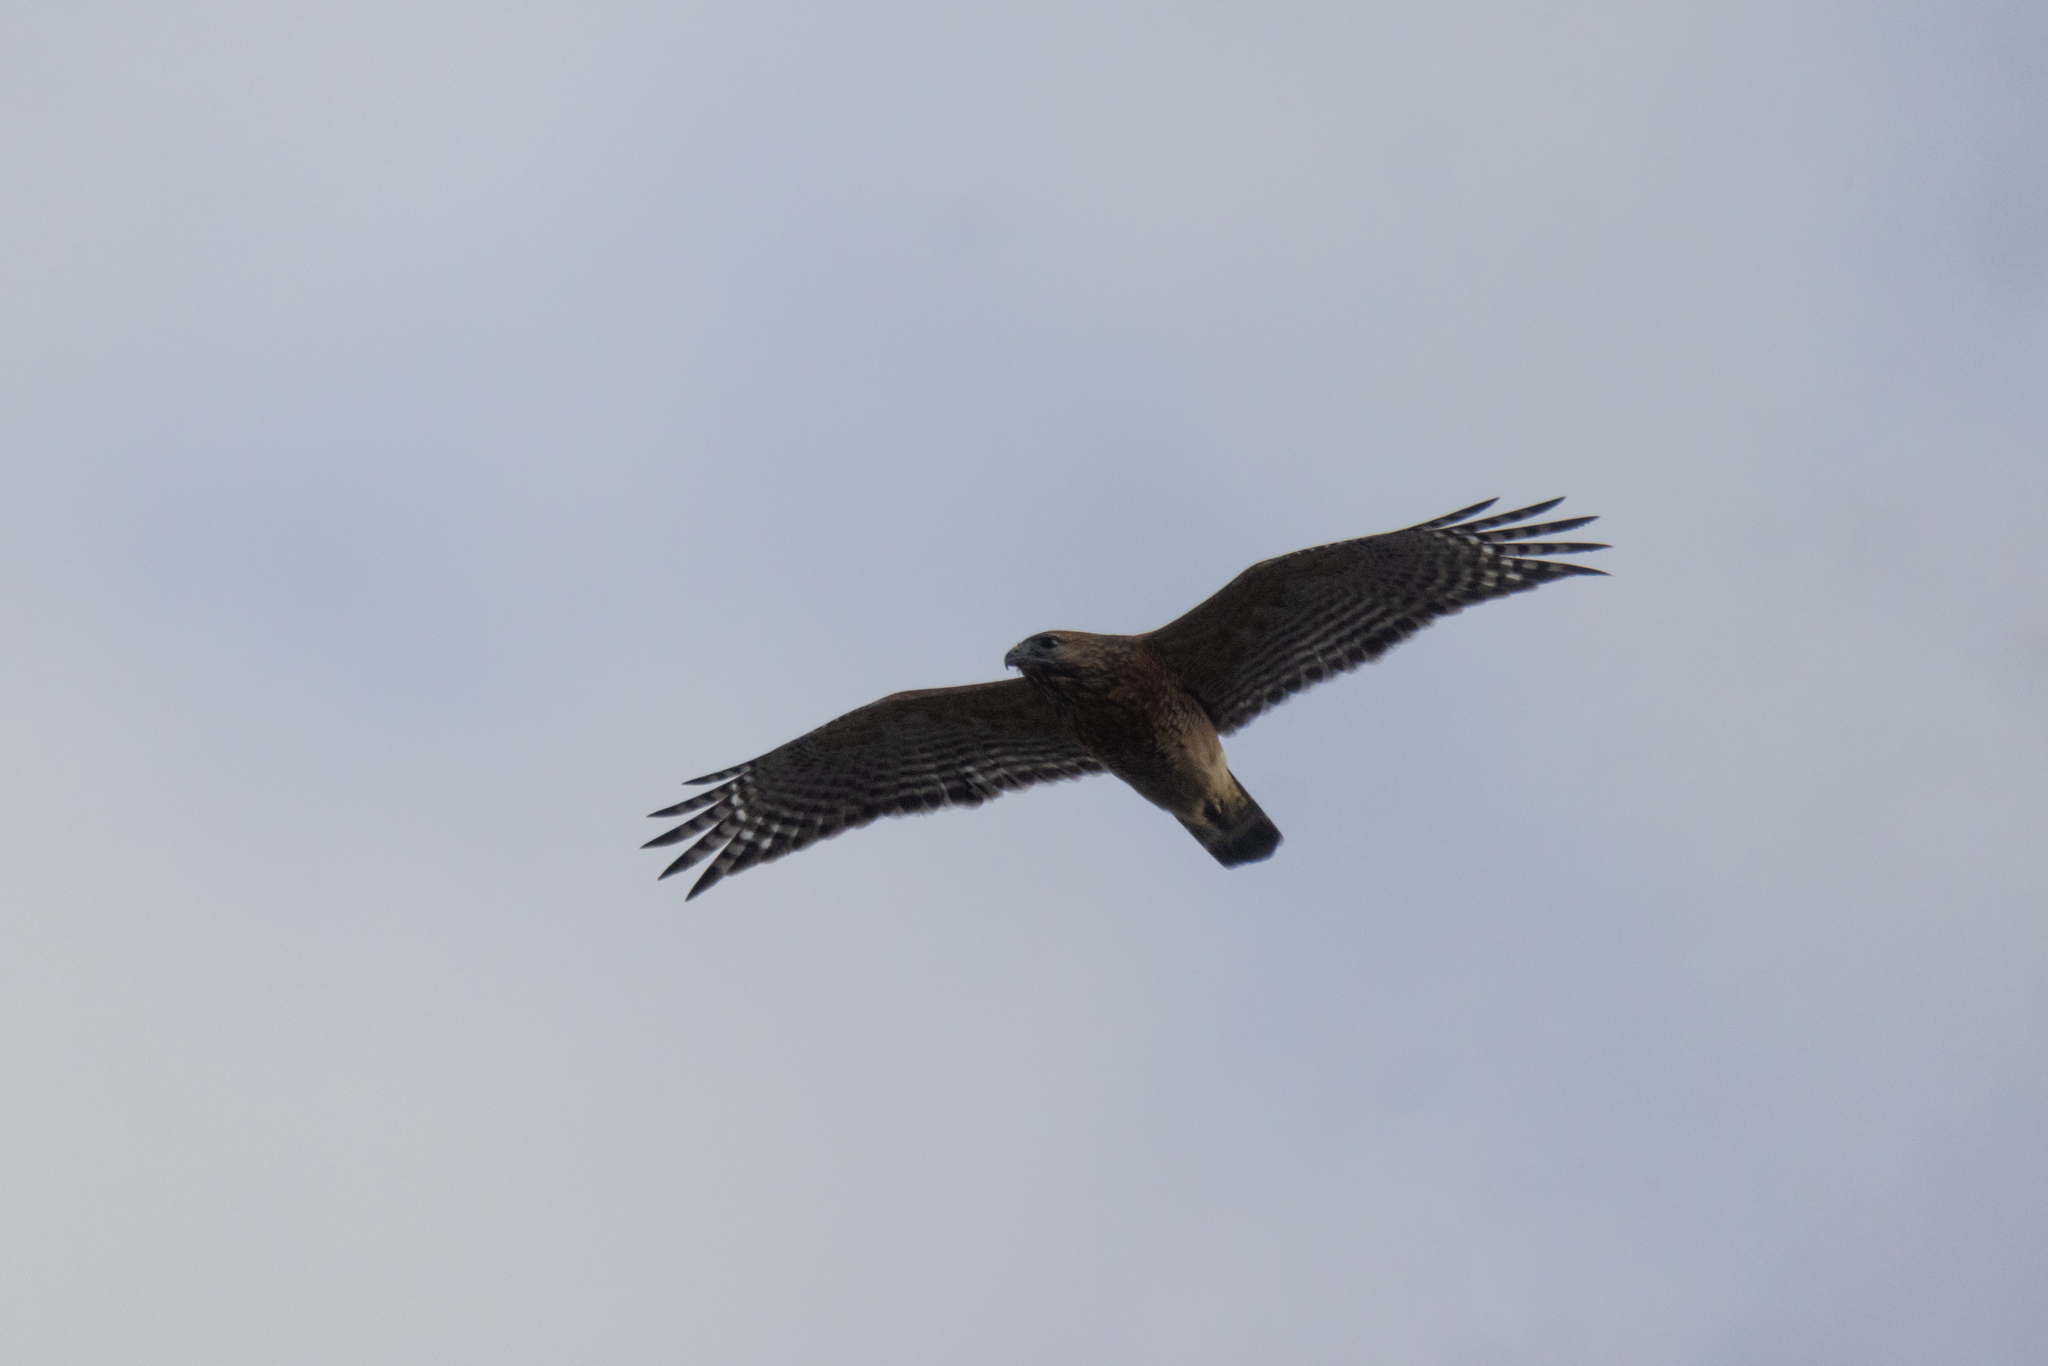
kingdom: Animalia
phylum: Chordata
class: Aves
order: Accipitriformes
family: Accipitridae
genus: Buteo
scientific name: Buteo lineatus
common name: Red-shouldered hawk
